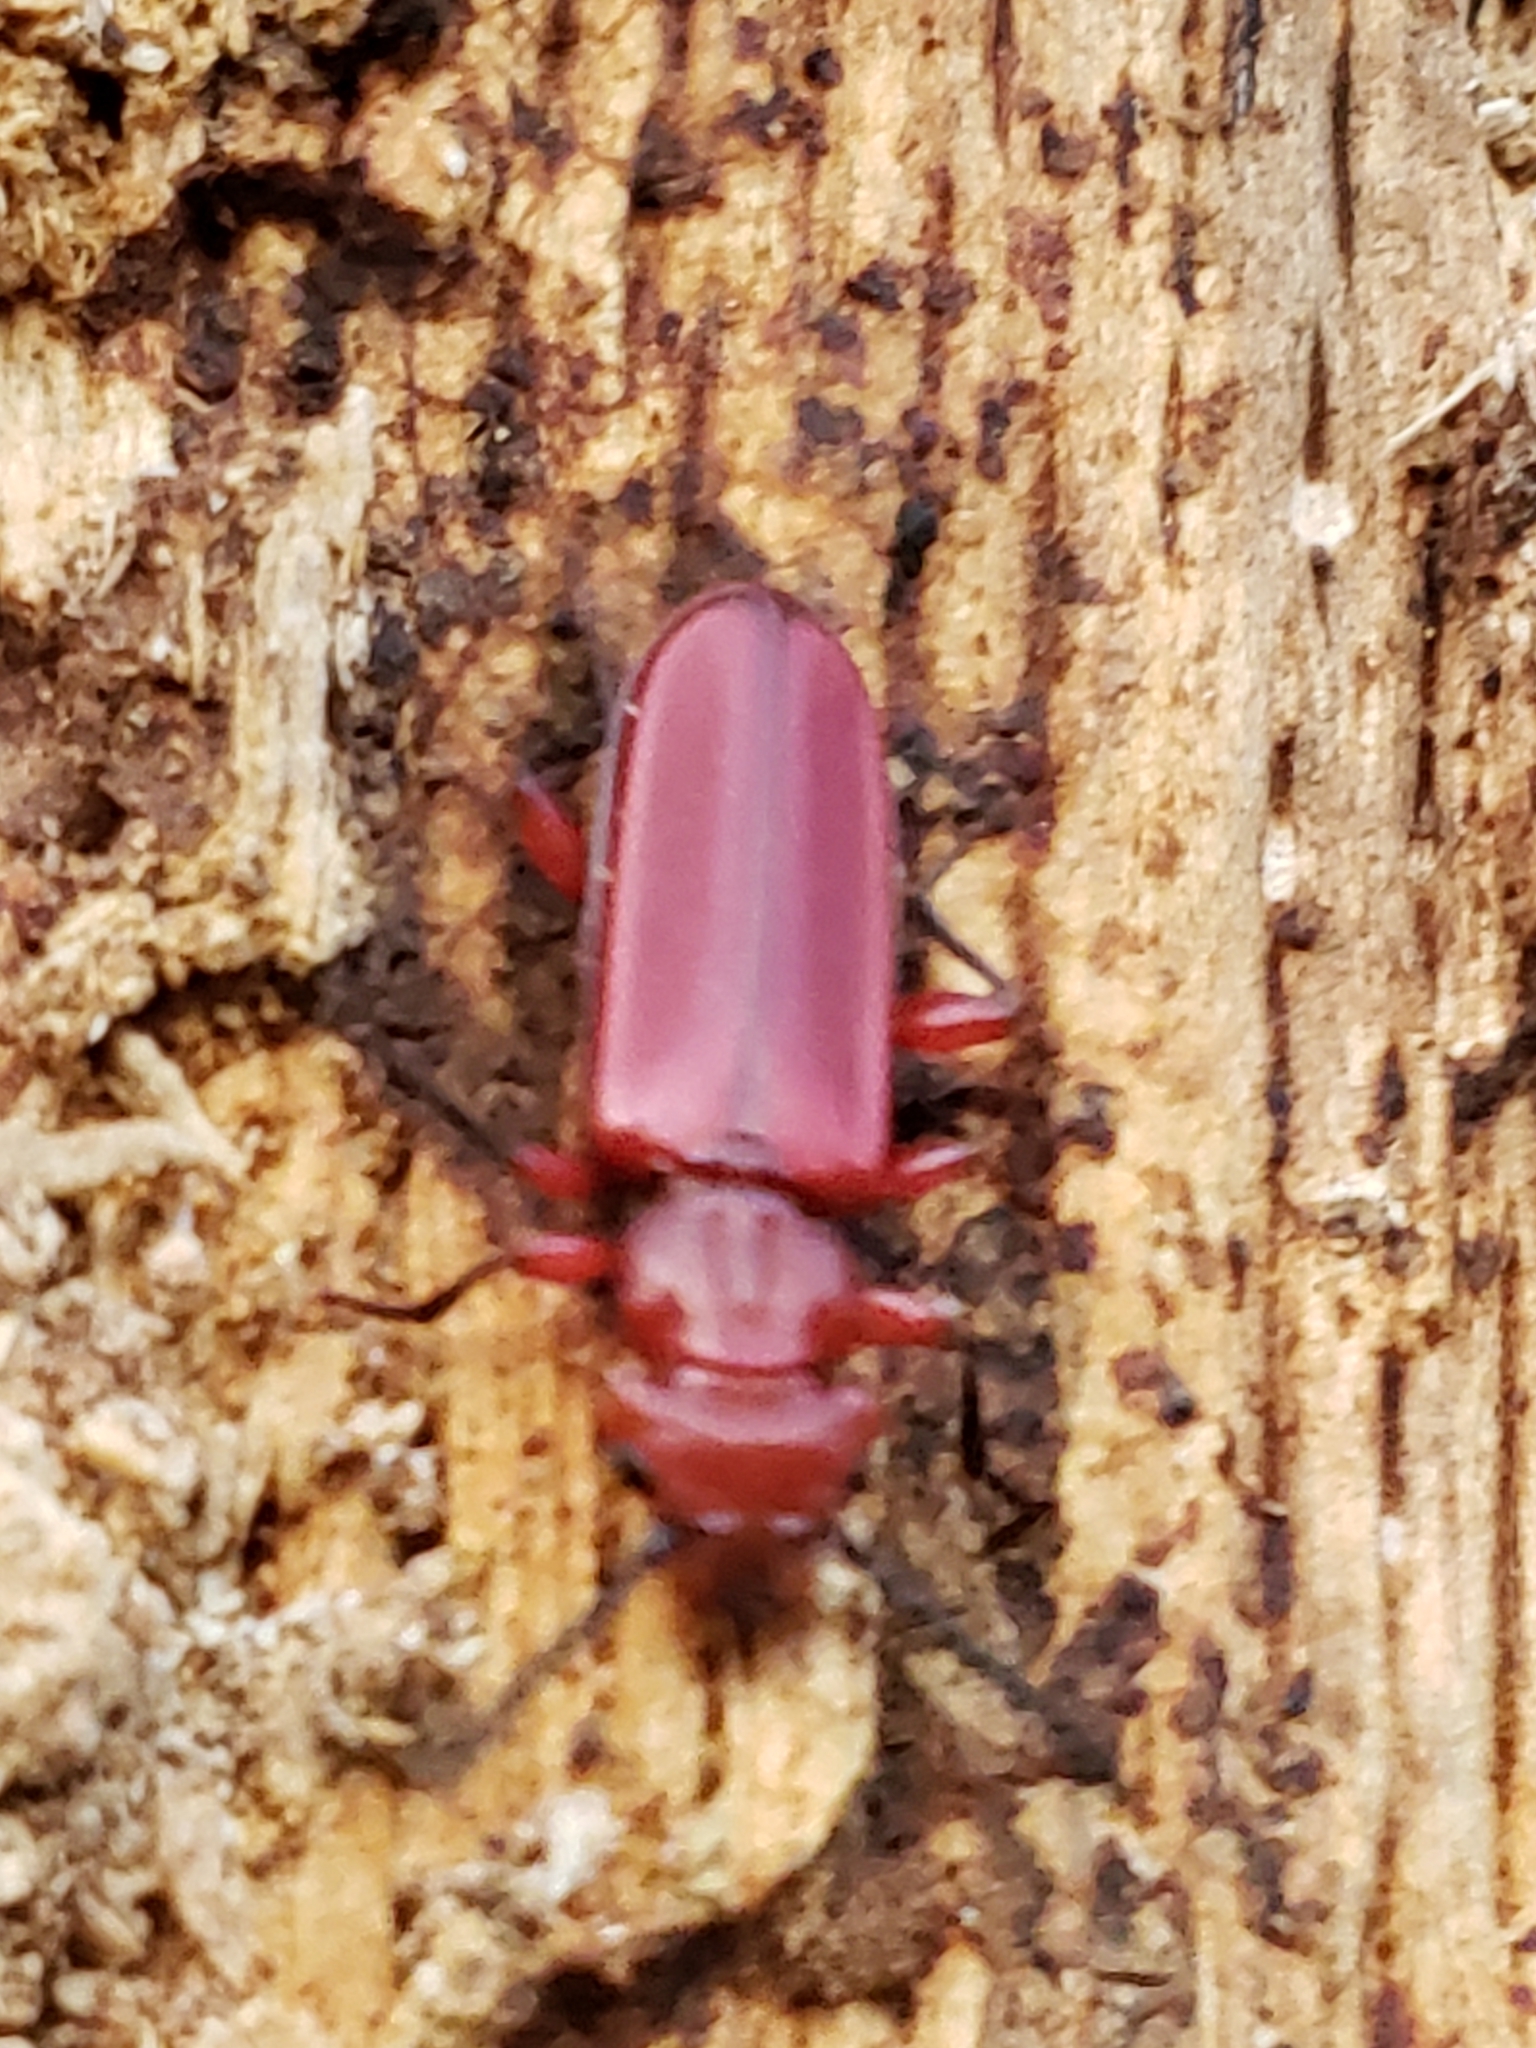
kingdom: Animalia
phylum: Arthropoda
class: Insecta
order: Coleoptera
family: Cucujidae
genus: Cucujus
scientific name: Cucujus clavipes
